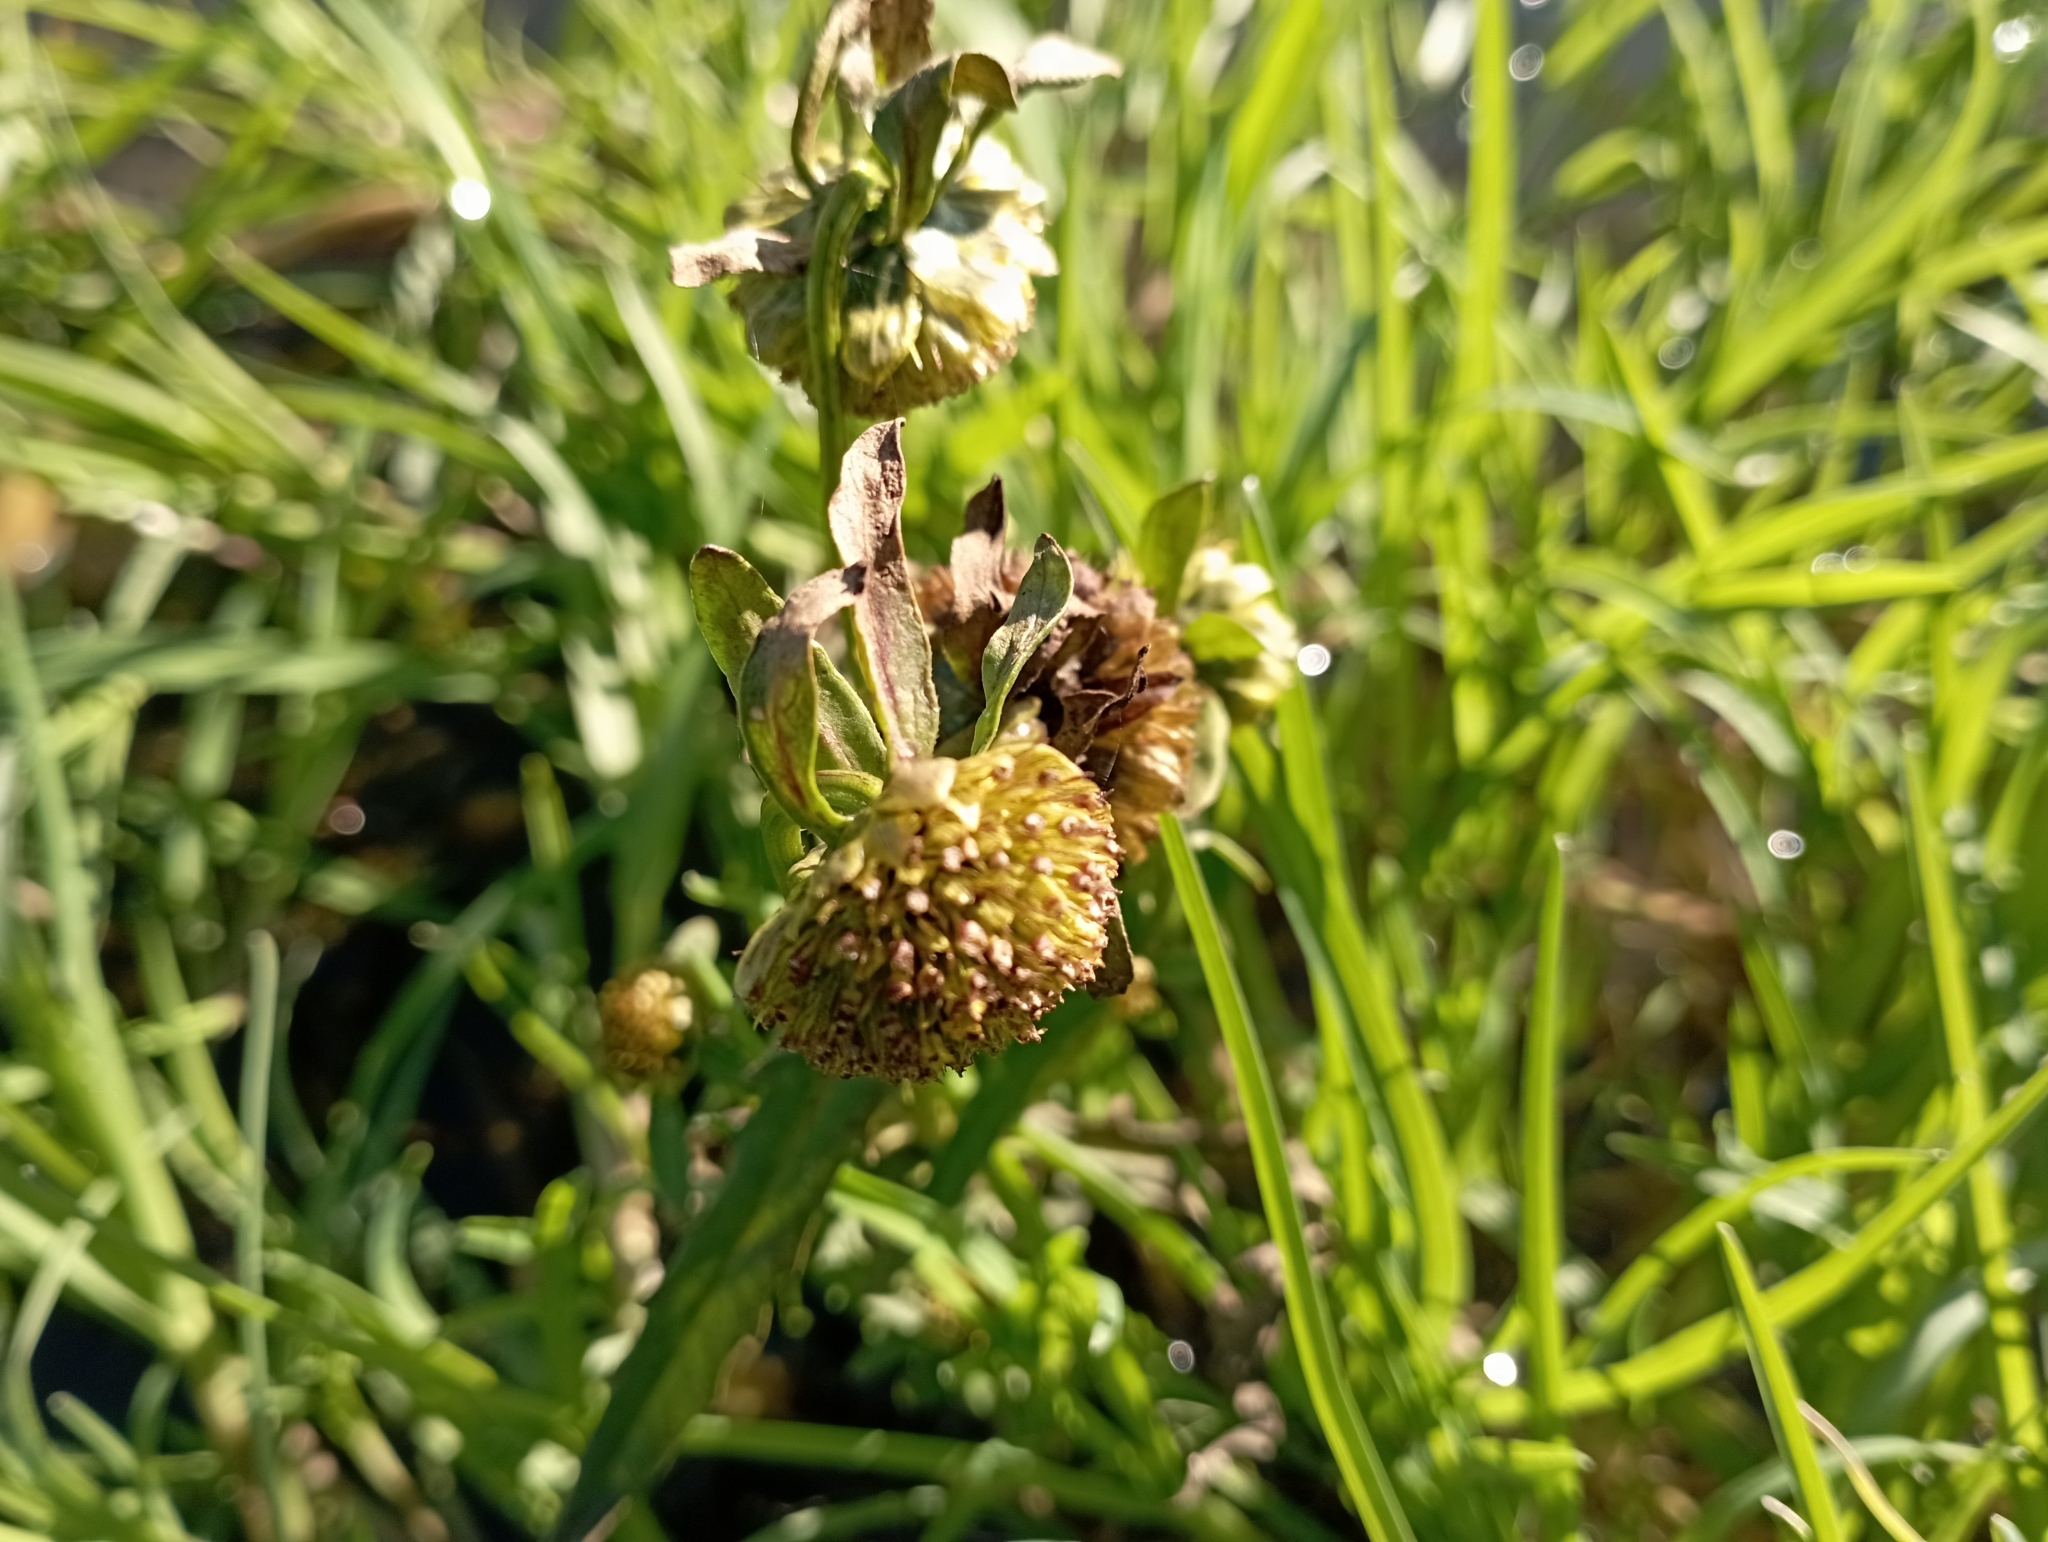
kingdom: Plantae
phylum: Tracheophyta
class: Magnoliopsida
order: Asterales
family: Asteraceae
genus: Bidens
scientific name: Bidens cernua
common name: Nodding bur-marigold
